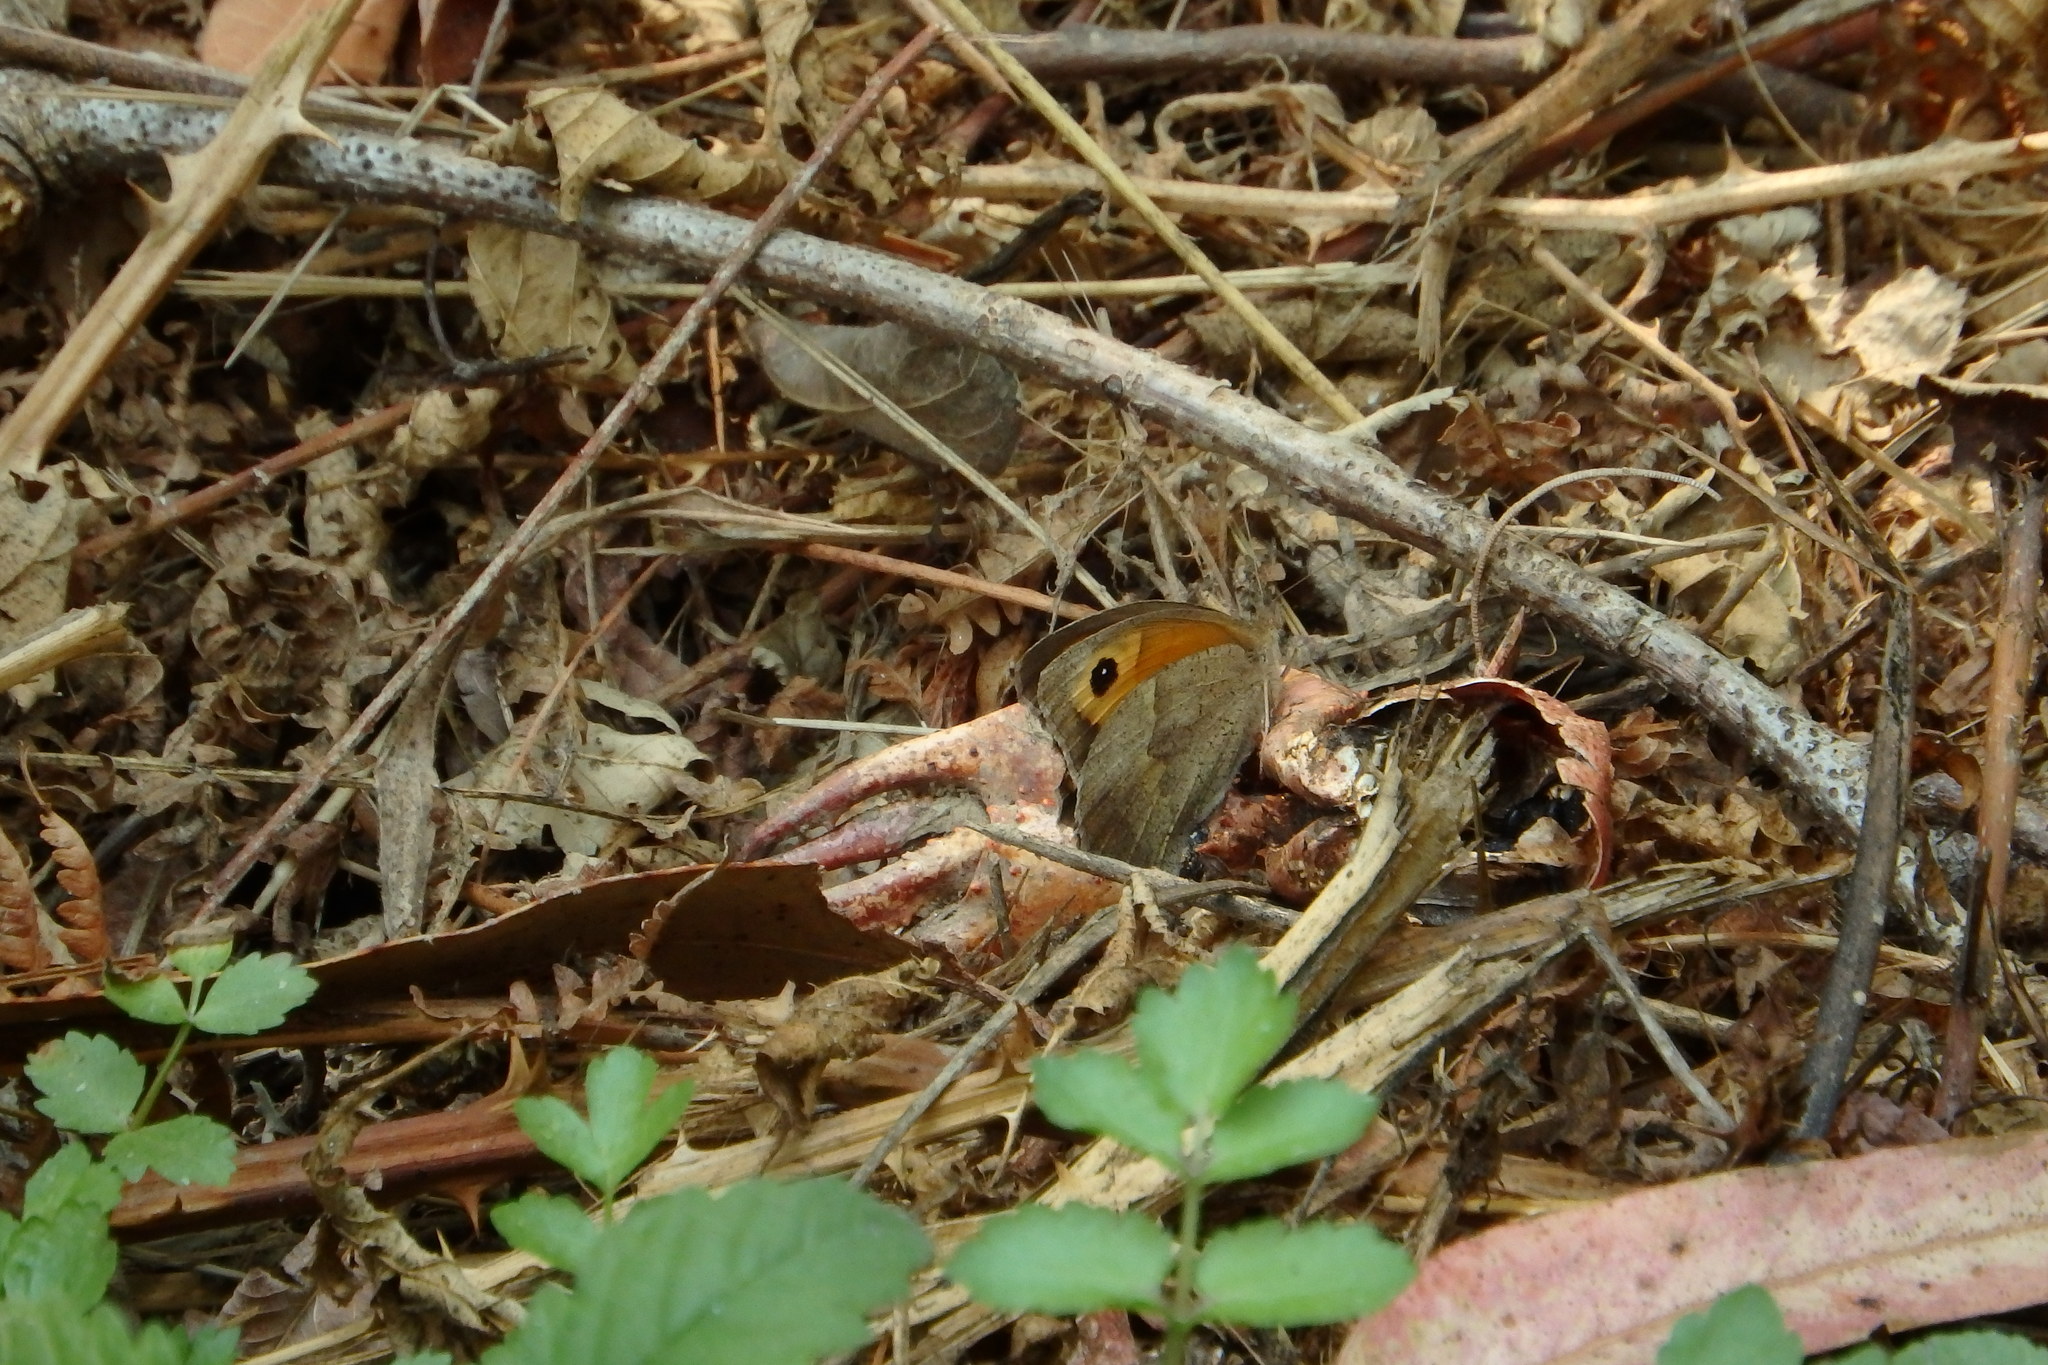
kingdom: Animalia
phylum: Arthropoda
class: Insecta
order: Lepidoptera
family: Nymphalidae
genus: Maniola
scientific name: Maniola jurtina
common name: Meadow brown
